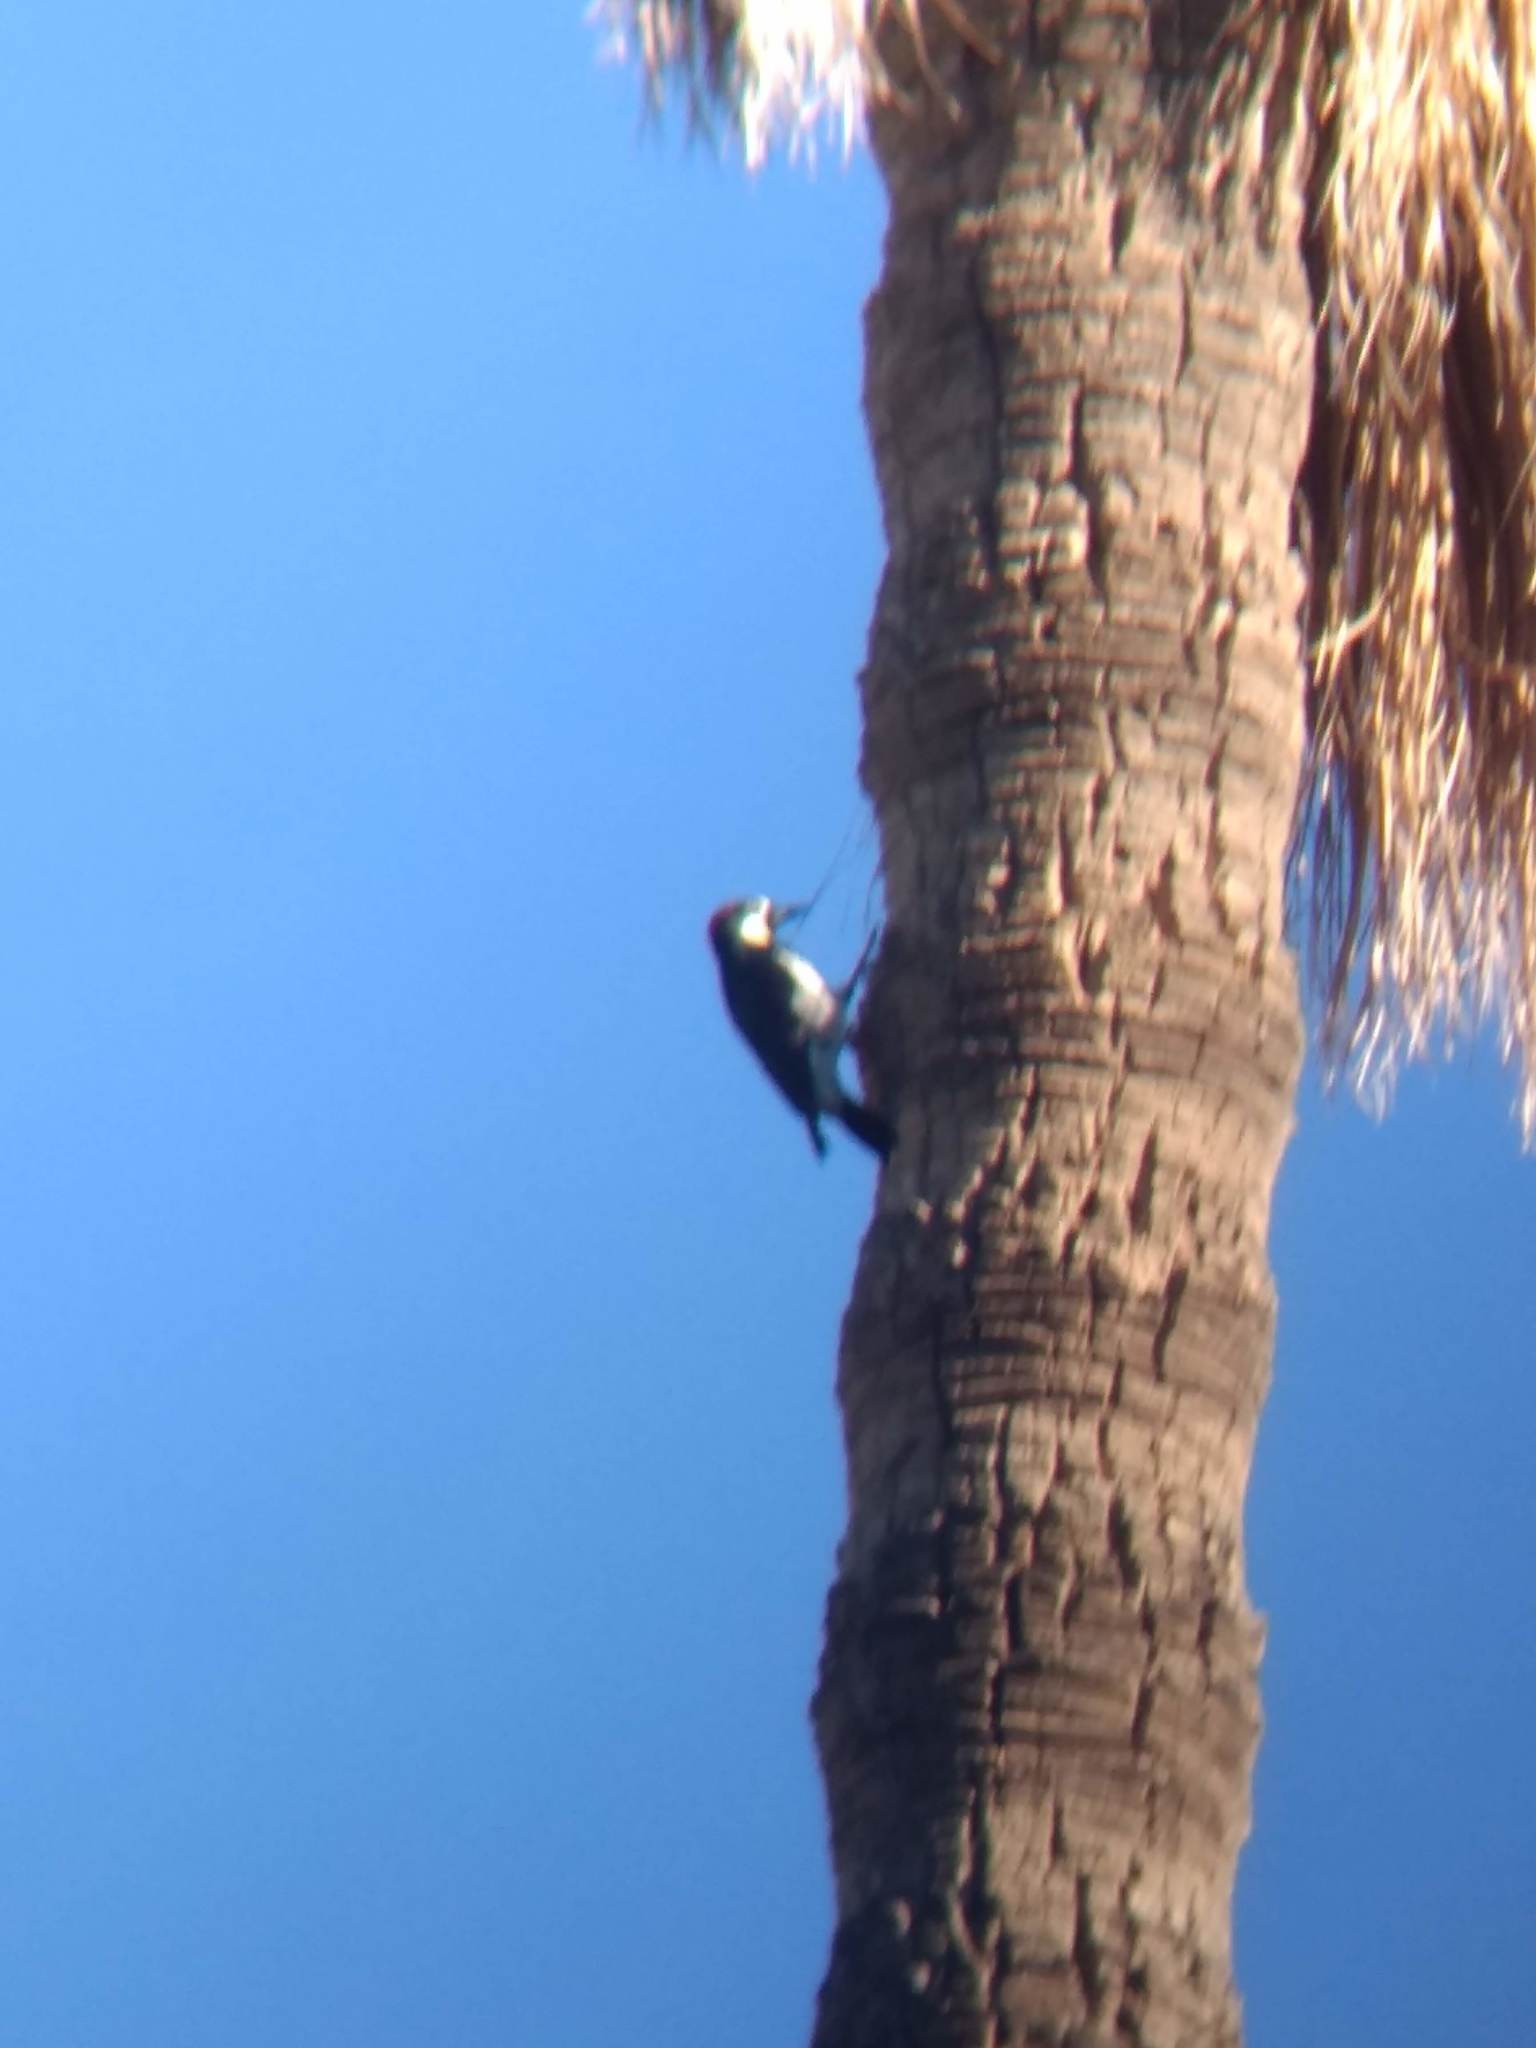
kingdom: Animalia
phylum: Chordata
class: Aves
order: Piciformes
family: Picidae
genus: Melanerpes
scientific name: Melanerpes formicivorus
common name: Acorn woodpecker
